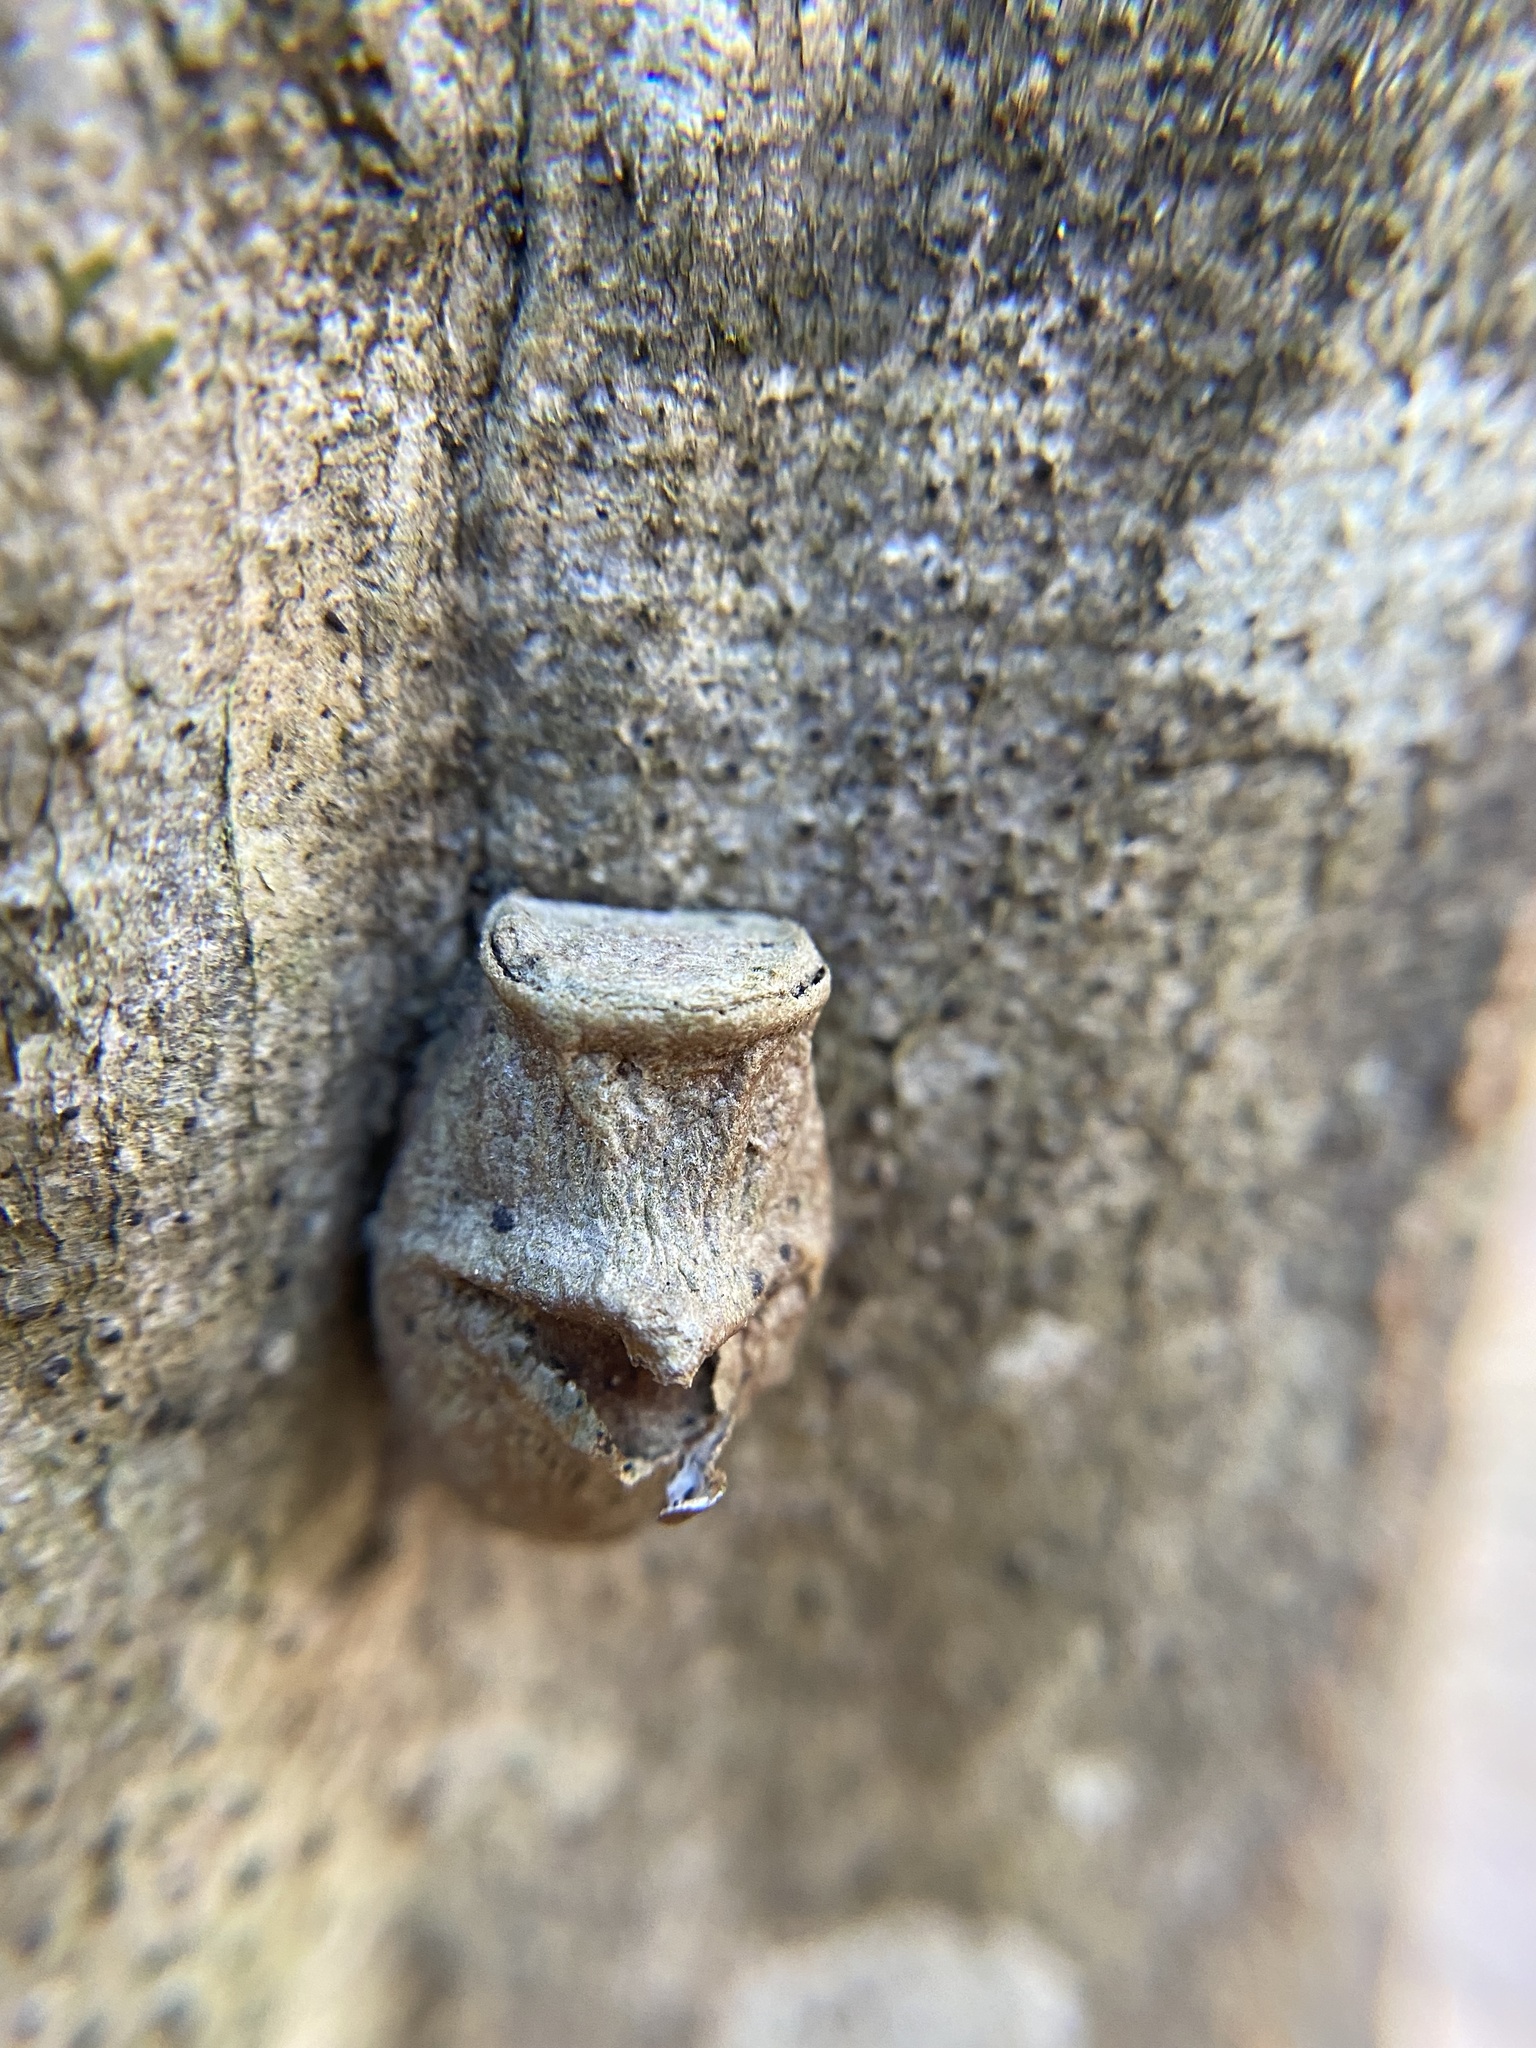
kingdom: Animalia
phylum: Arthropoda
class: Insecta
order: Lepidoptera
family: Megalopygidae
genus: Megalopyge
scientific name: Megalopyge
